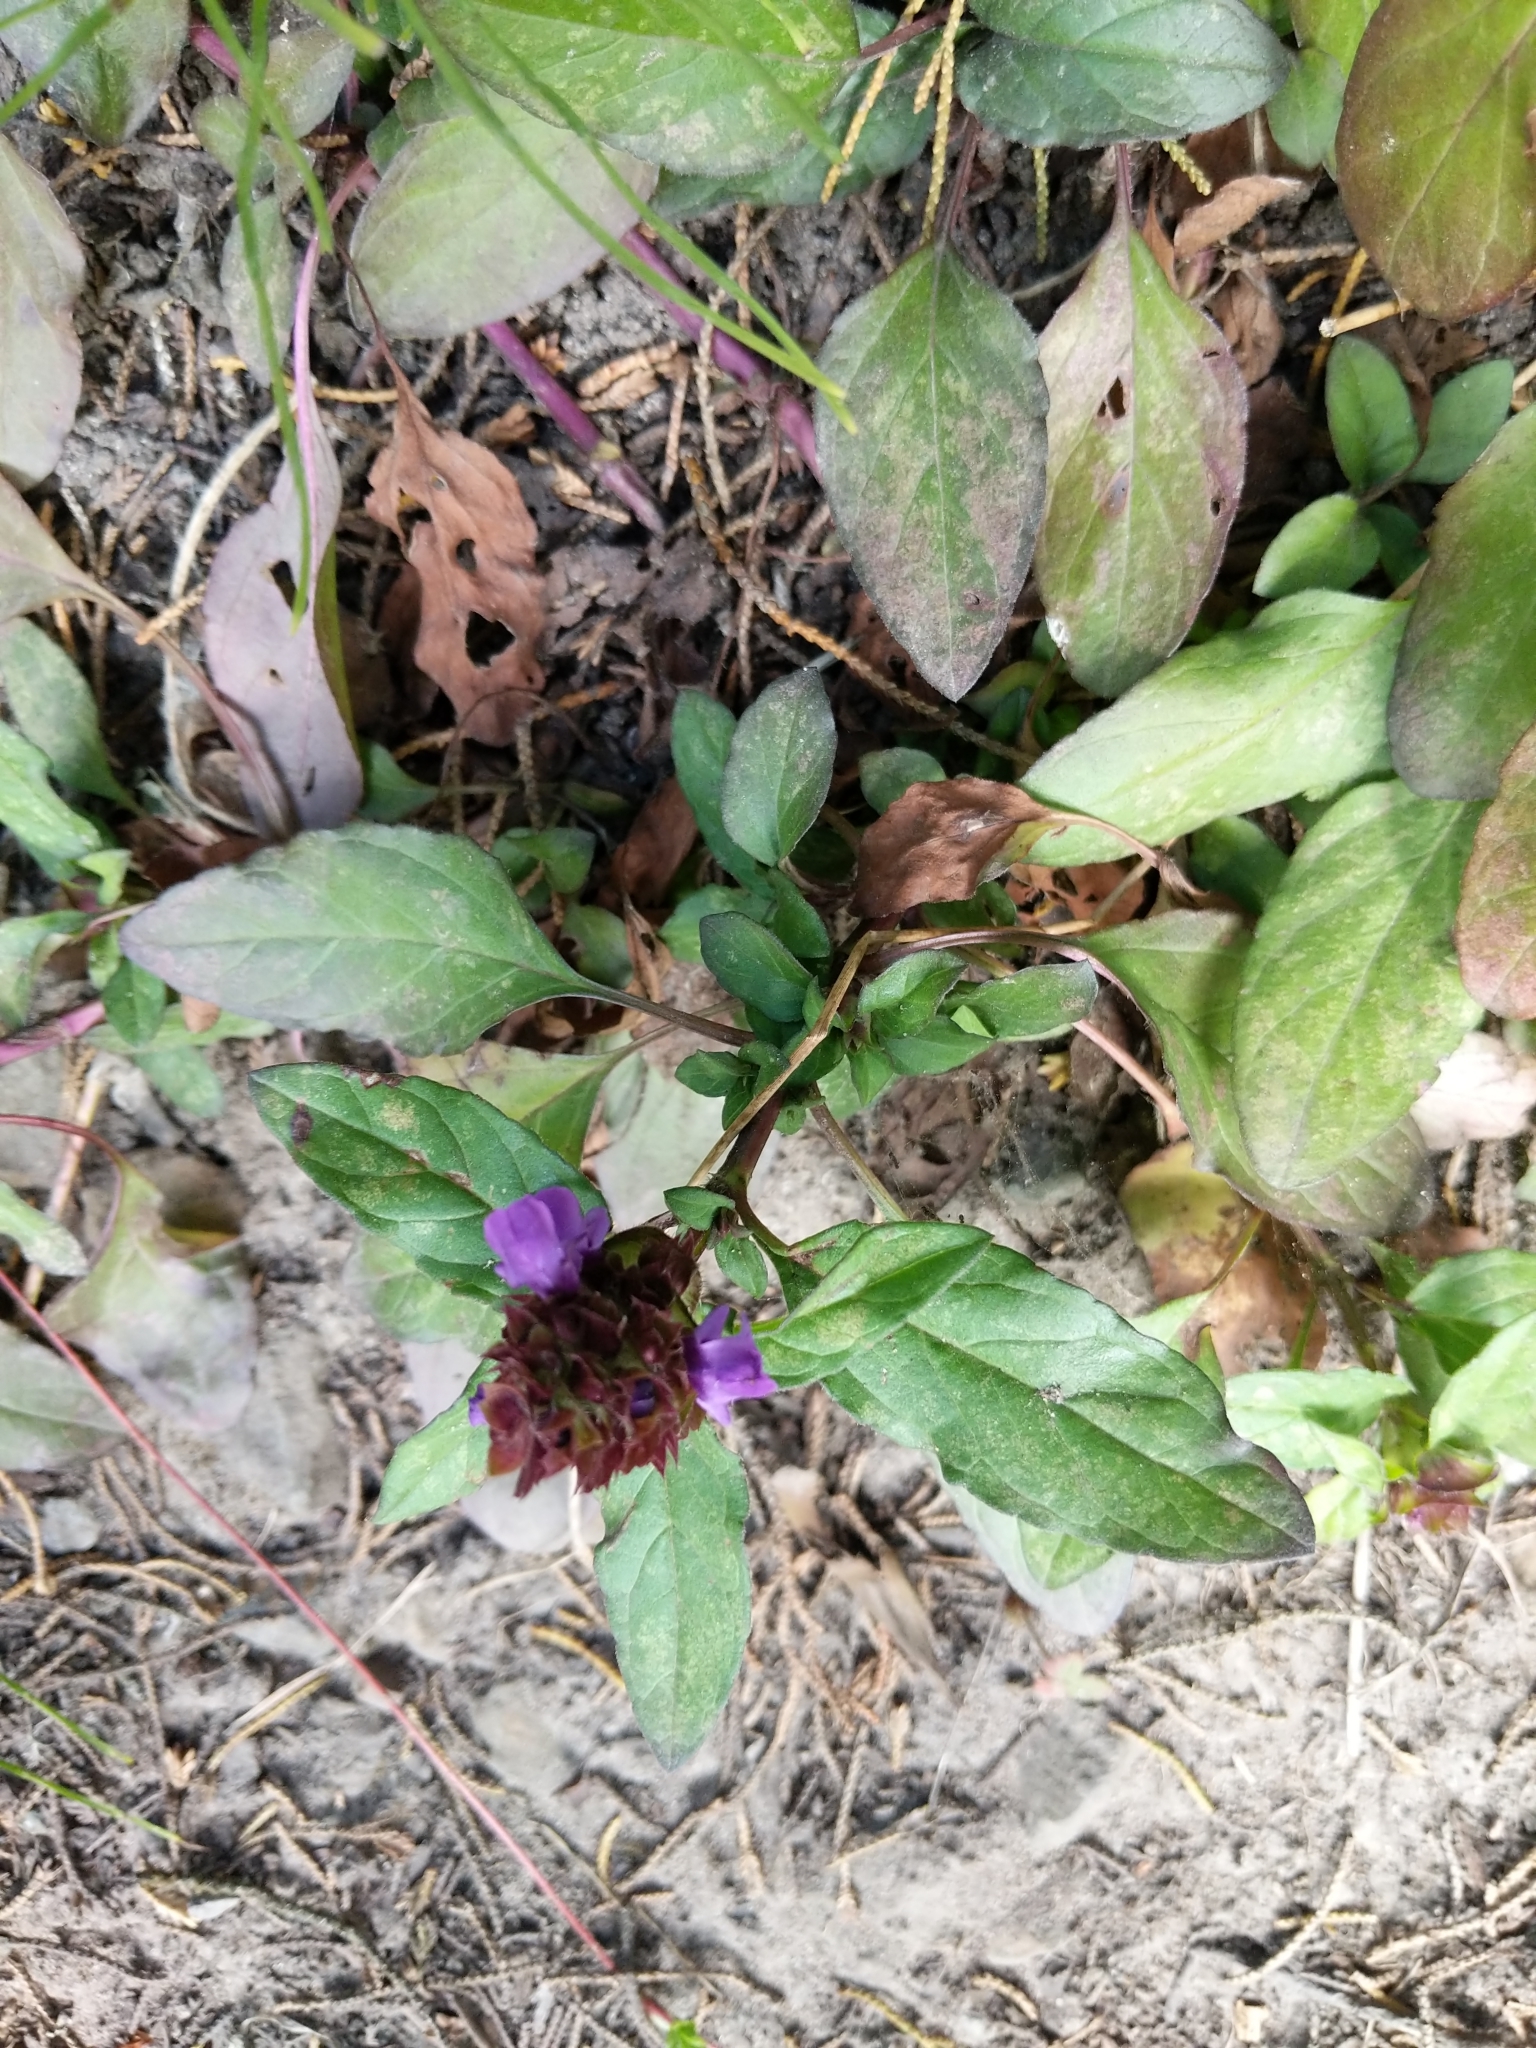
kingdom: Plantae
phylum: Tracheophyta
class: Magnoliopsida
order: Lamiales
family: Lamiaceae
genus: Prunella
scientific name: Prunella vulgaris
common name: Heal-all
